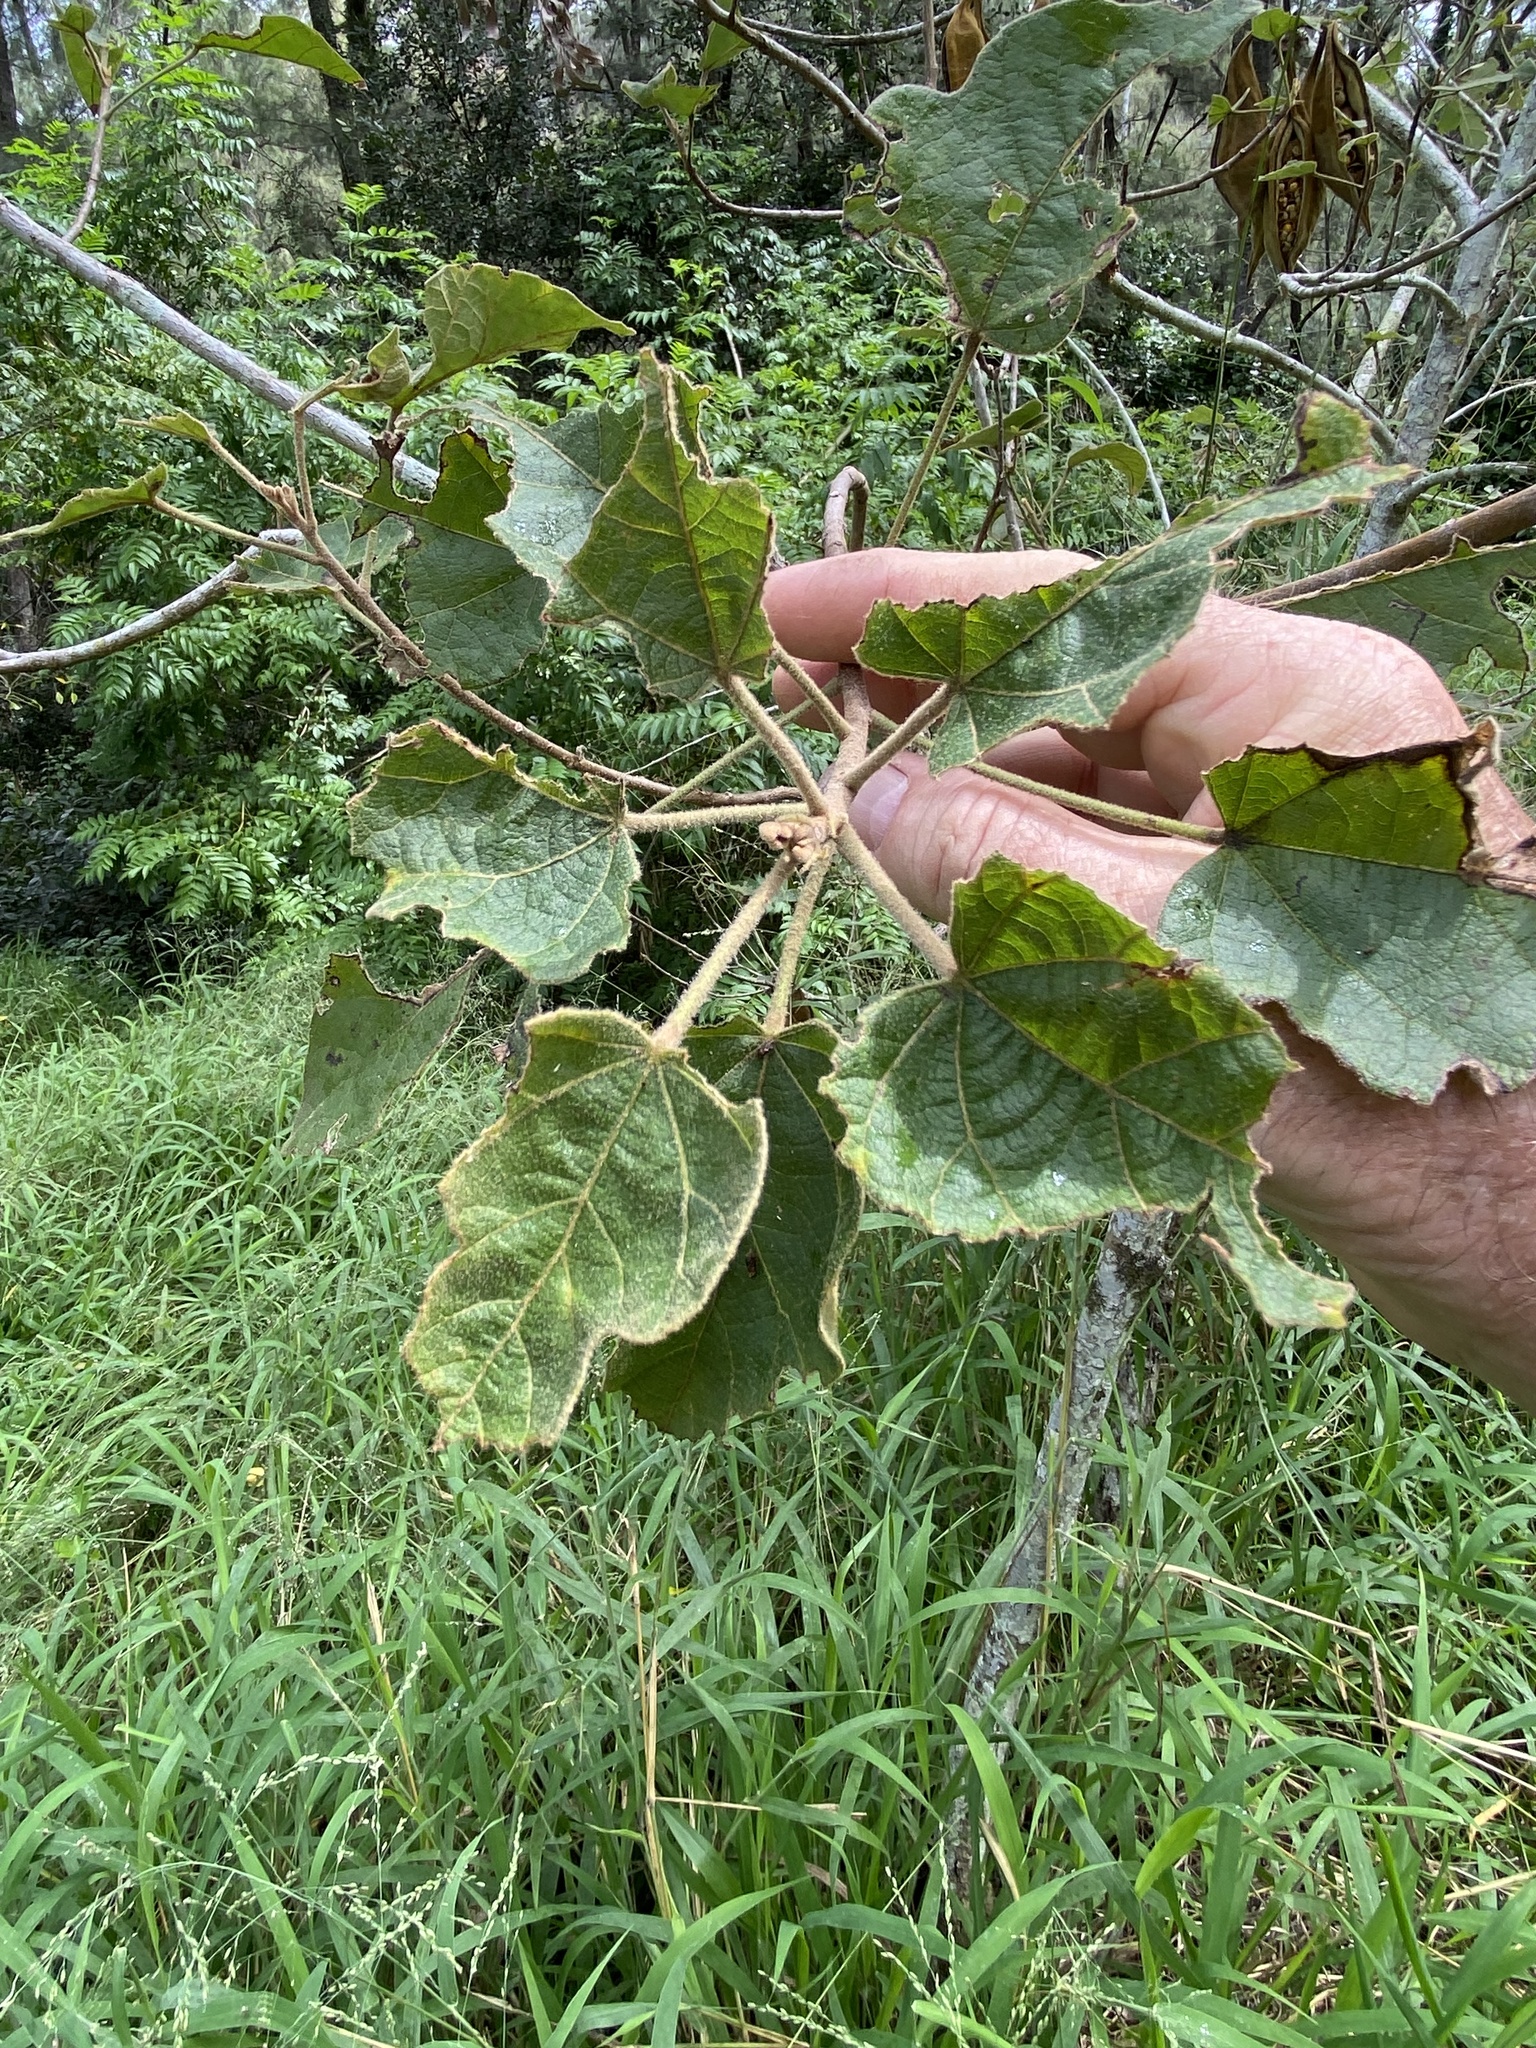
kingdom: Plantae
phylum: Tracheophyta
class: Magnoliopsida
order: Malvales
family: Malvaceae
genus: Brachychiton
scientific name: Brachychiton bidwillii
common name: Little kurrajong
